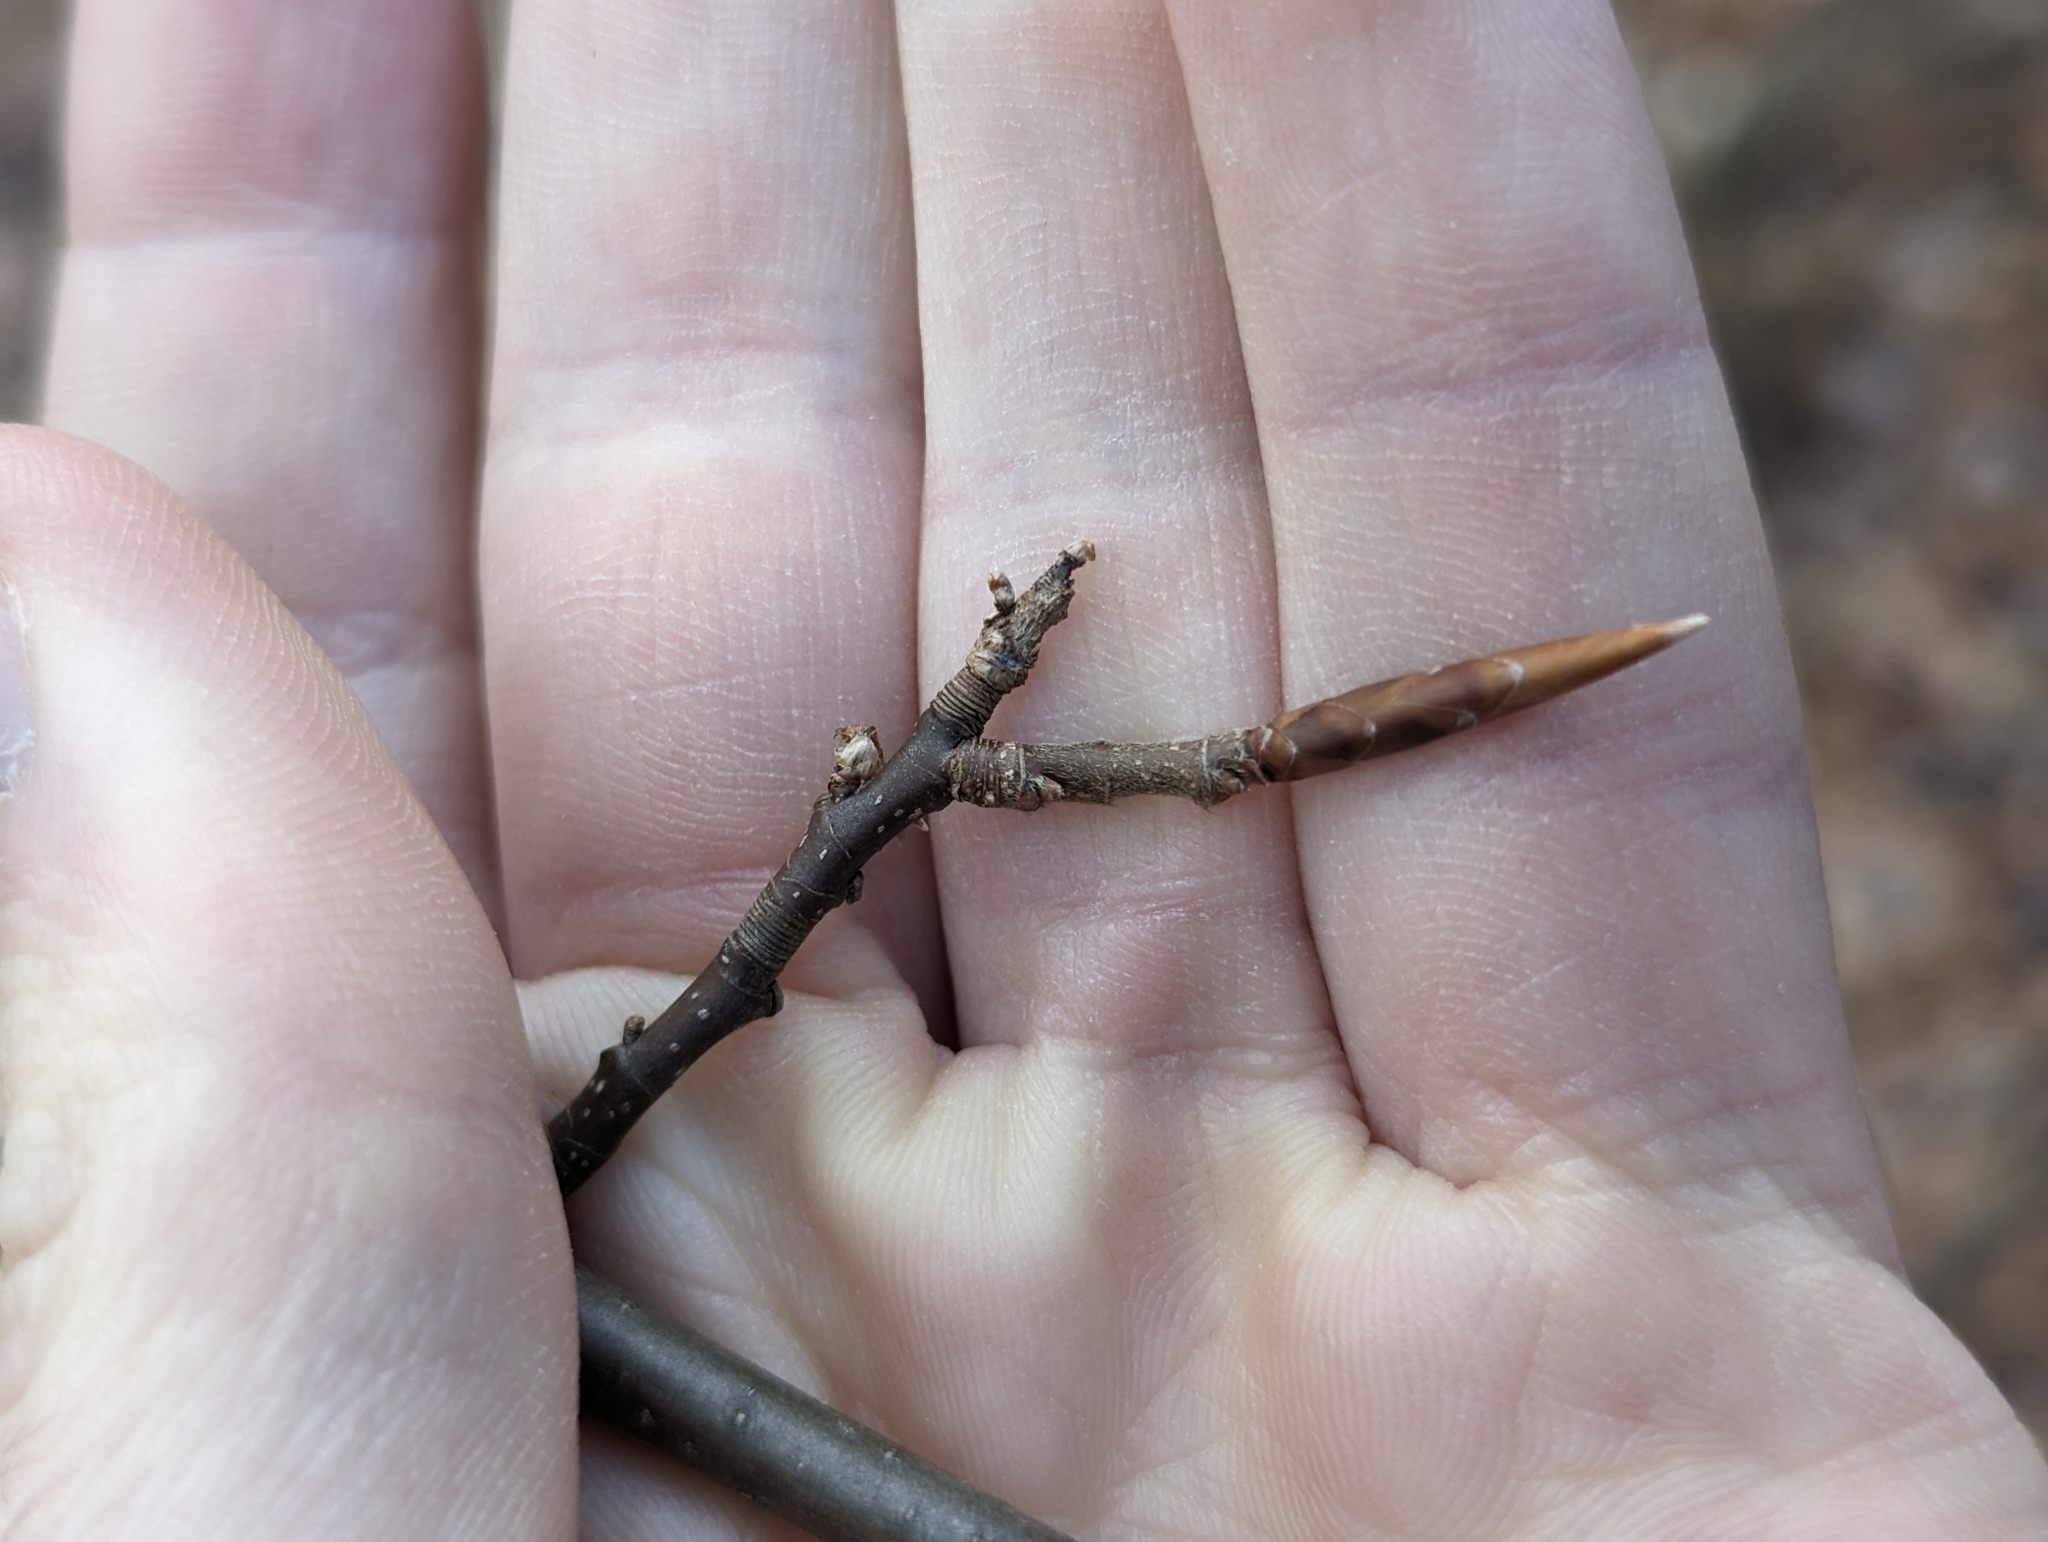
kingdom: Plantae
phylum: Tracheophyta
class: Magnoliopsida
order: Fagales
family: Fagaceae
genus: Fagus
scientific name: Fagus grandifolia
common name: American beech
